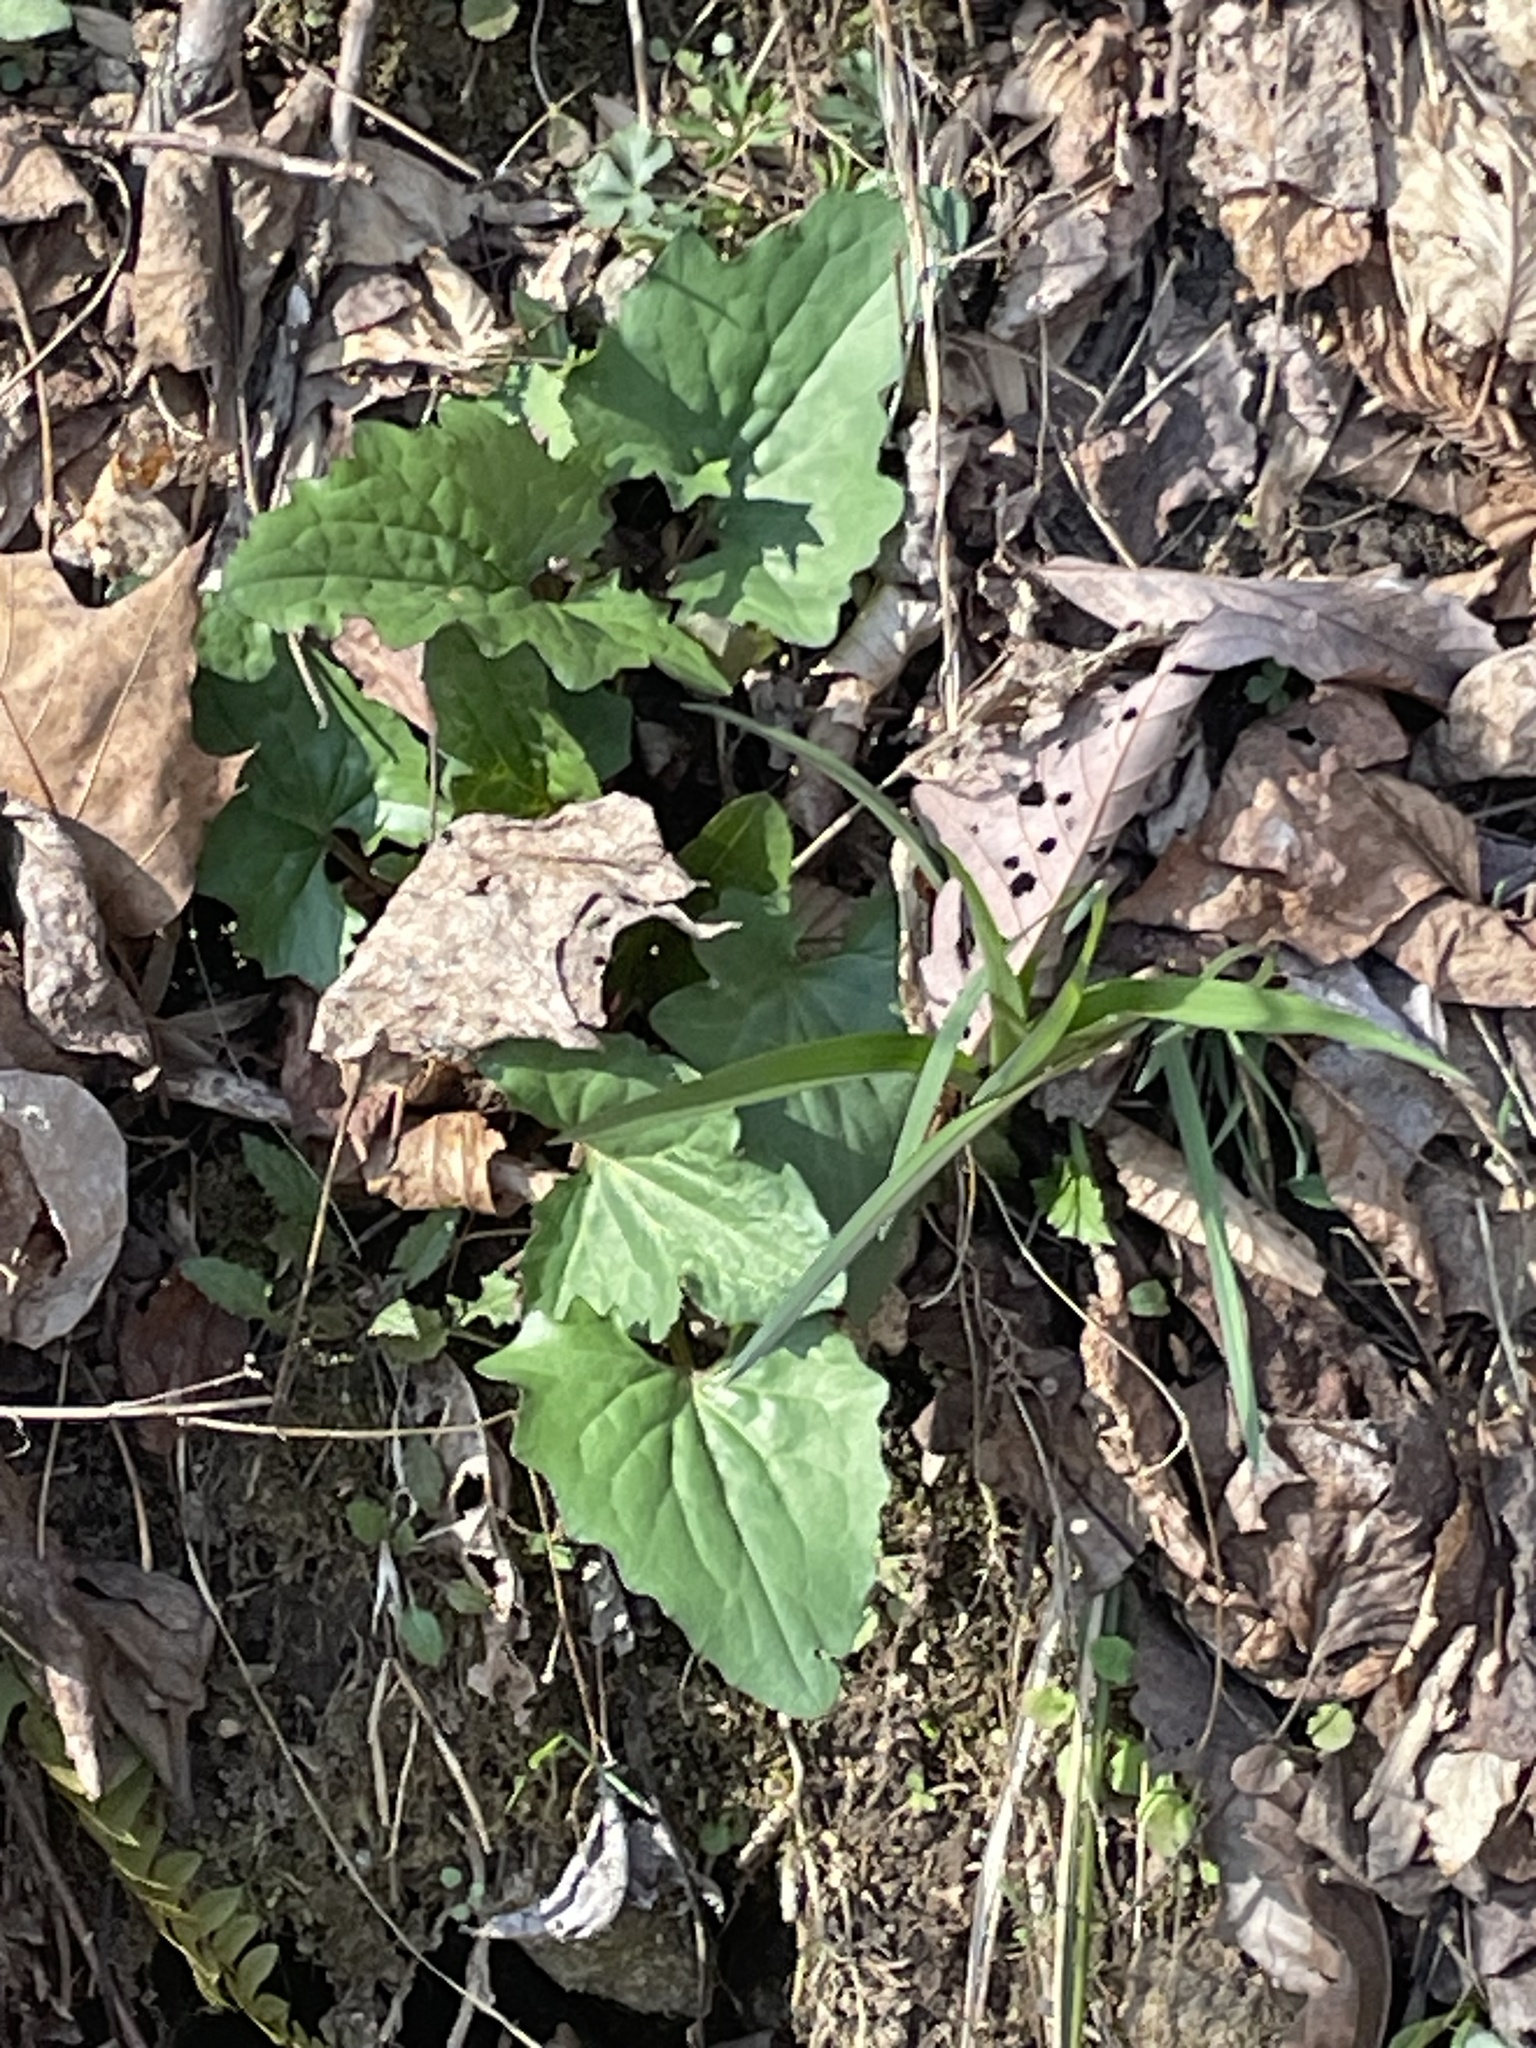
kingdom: Plantae
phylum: Tracheophyta
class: Magnoliopsida
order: Asterales
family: Asteraceae
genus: Arnoglossum
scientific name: Arnoglossum atriplicifolium
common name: Pale indian-plantain
